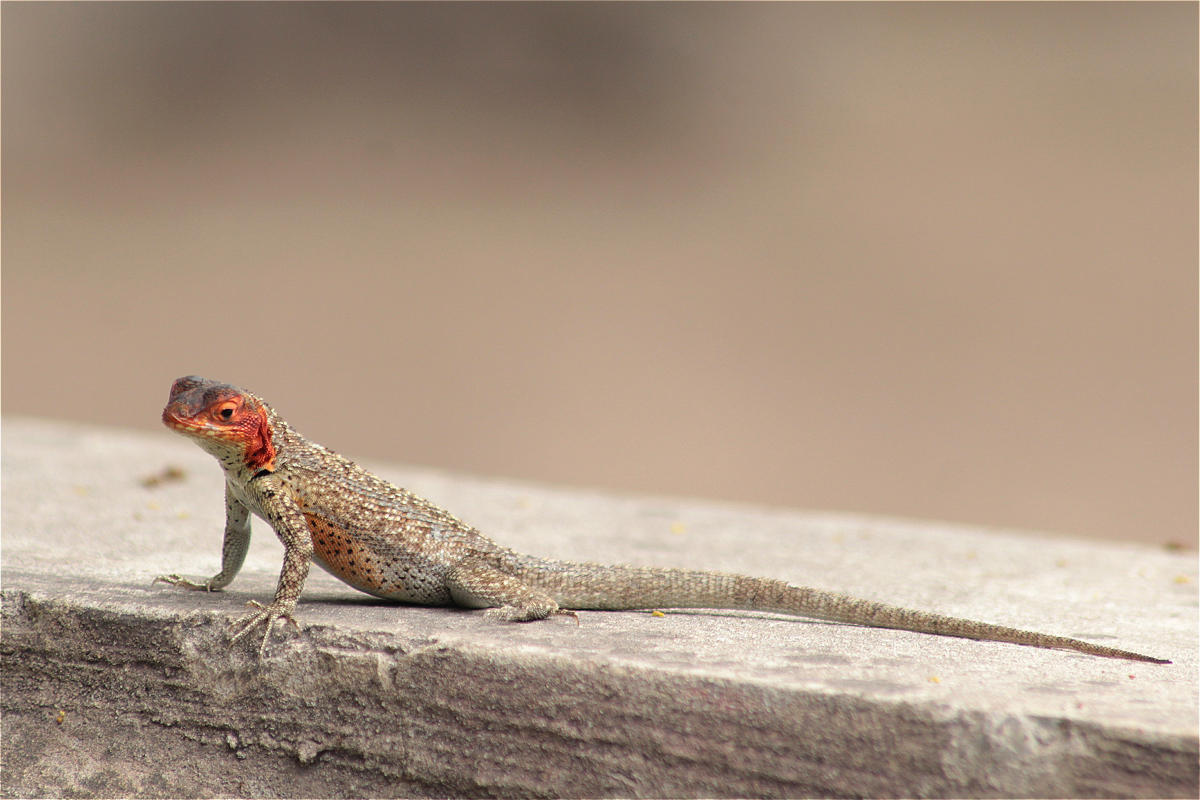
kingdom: Animalia
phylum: Chordata
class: Squamata
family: Tropiduridae
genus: Microlophus
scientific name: Microlophus albemarlensis
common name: Galapagos lava lizard
